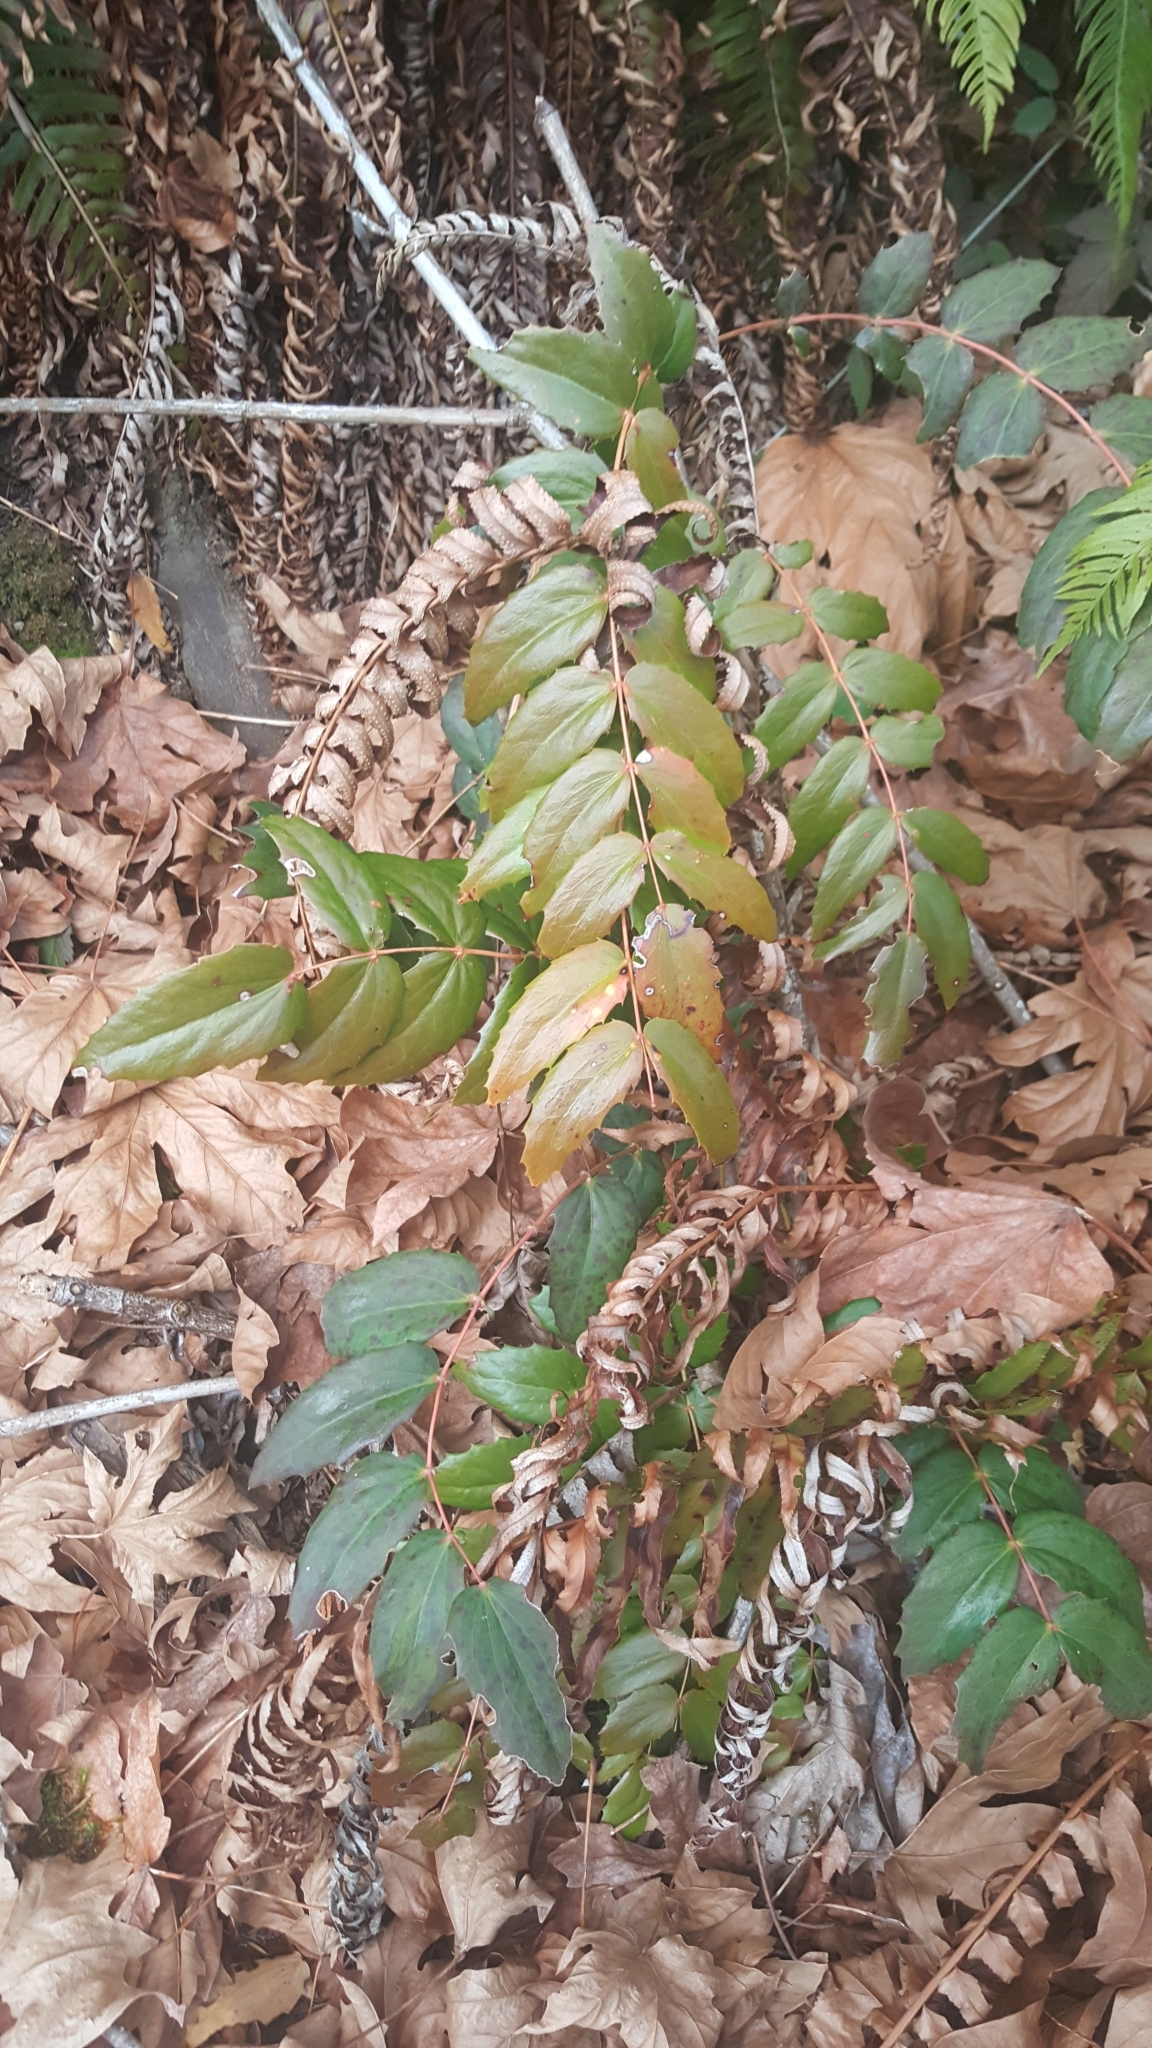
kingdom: Plantae
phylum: Tracheophyta
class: Magnoliopsida
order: Ranunculales
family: Berberidaceae
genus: Mahonia
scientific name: Mahonia nervosa
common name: Cascade oregon-grape
